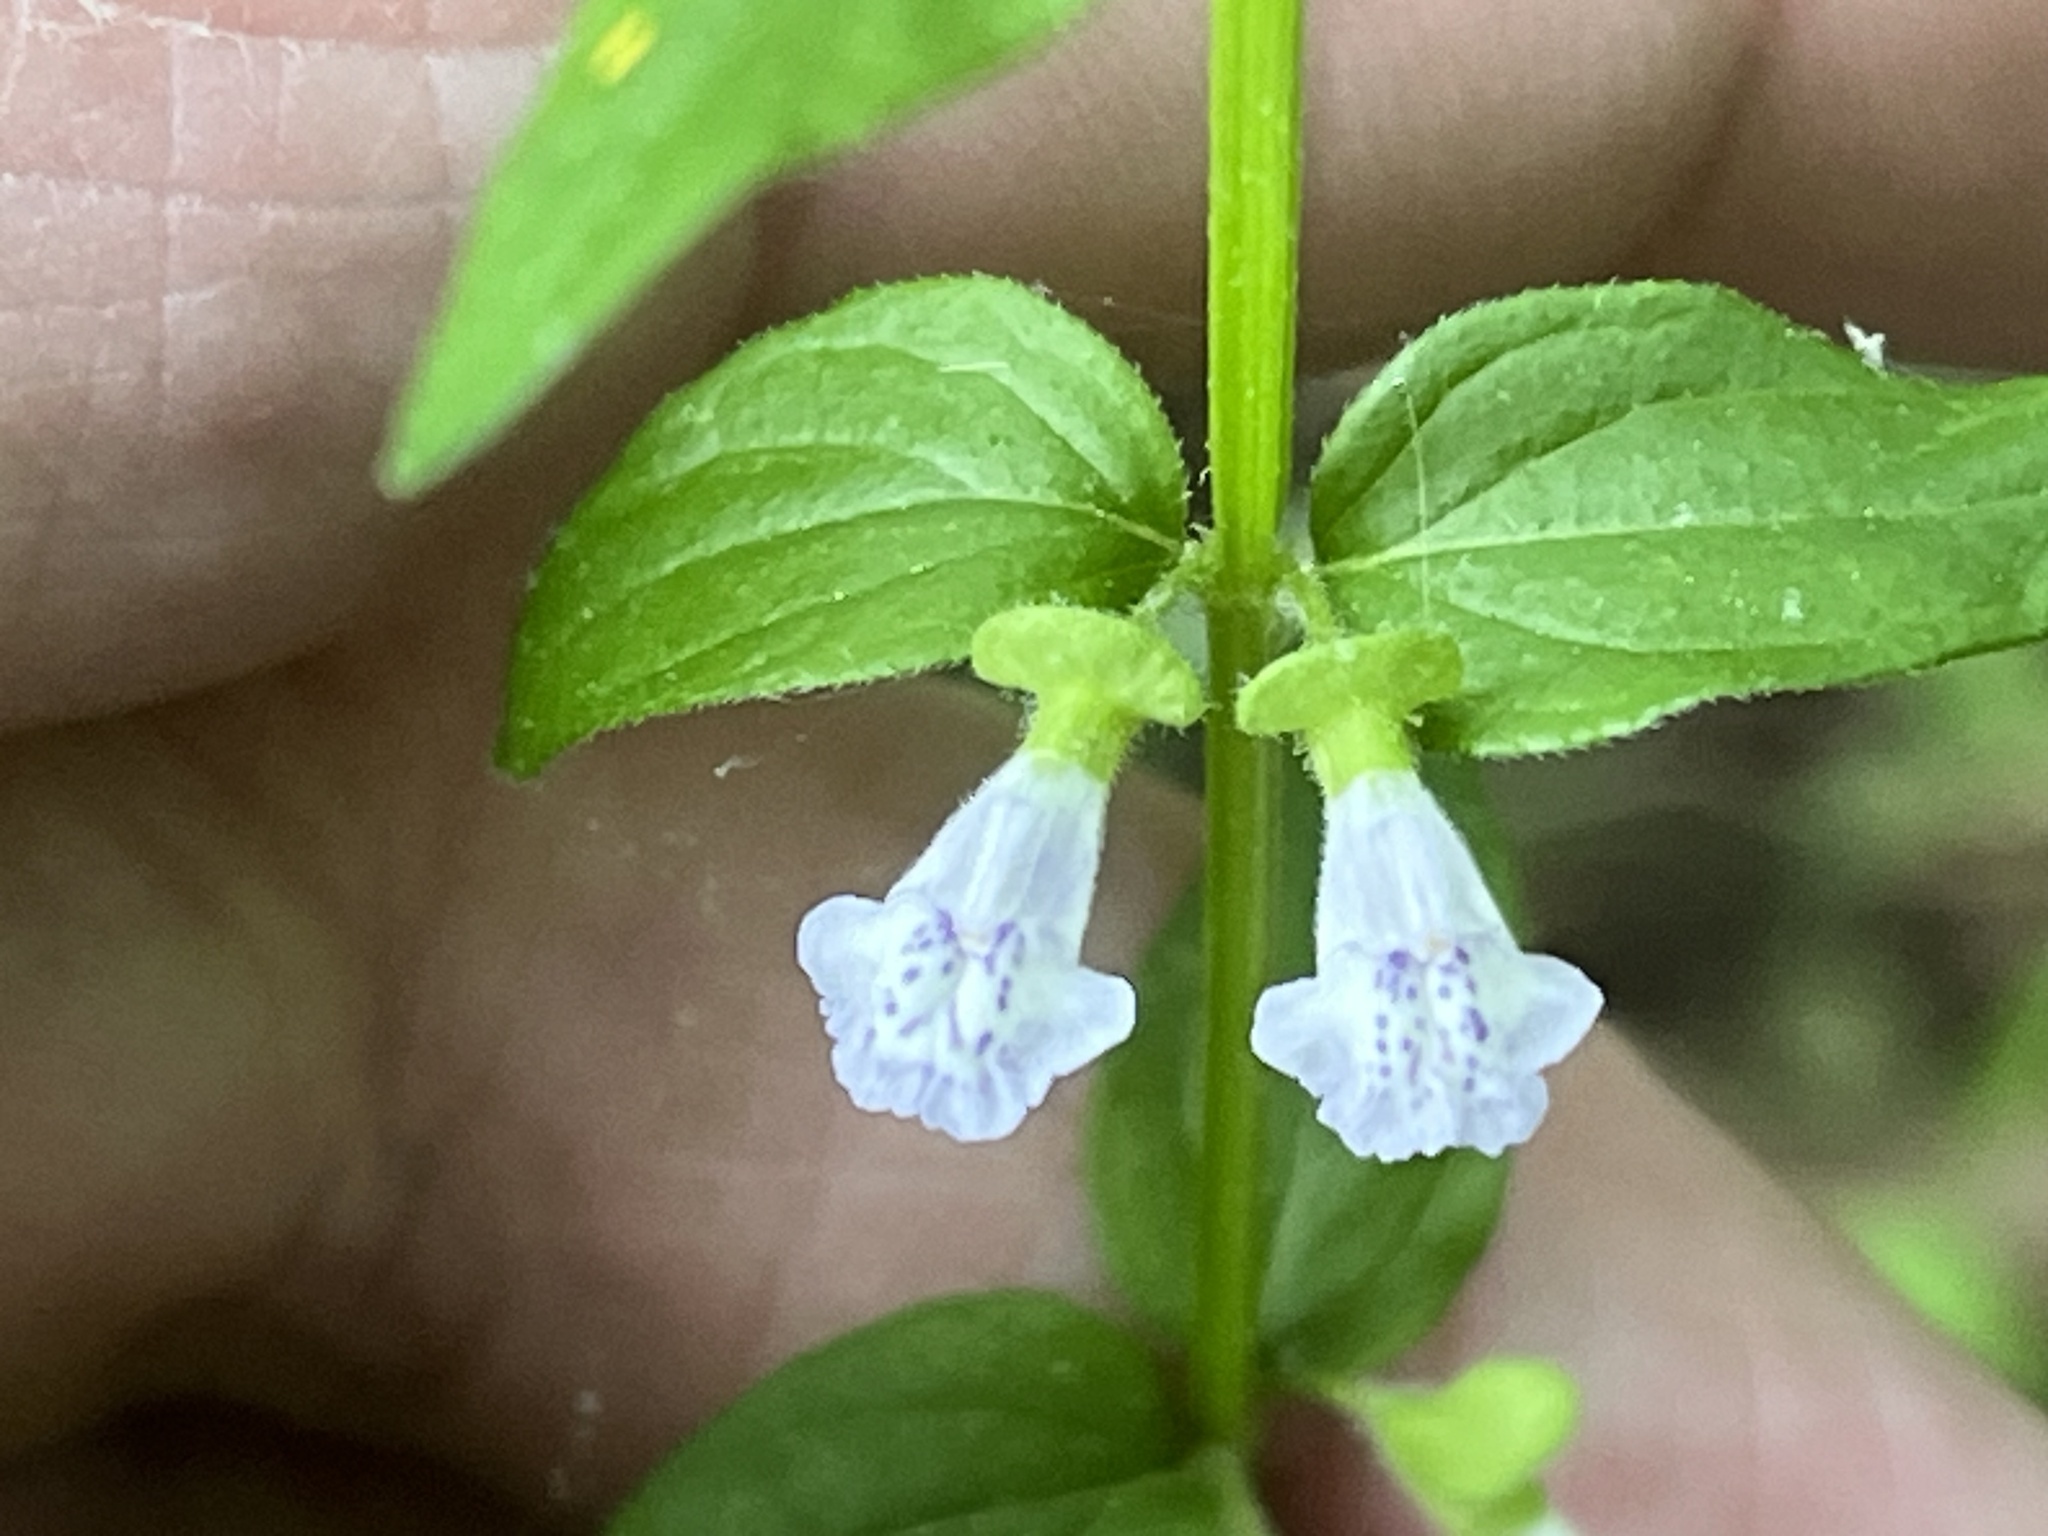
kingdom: Plantae
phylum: Tracheophyta
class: Magnoliopsida
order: Lamiales
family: Lamiaceae
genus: Scutellaria
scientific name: Scutellaria nervosa
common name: Bottomland skullcap
